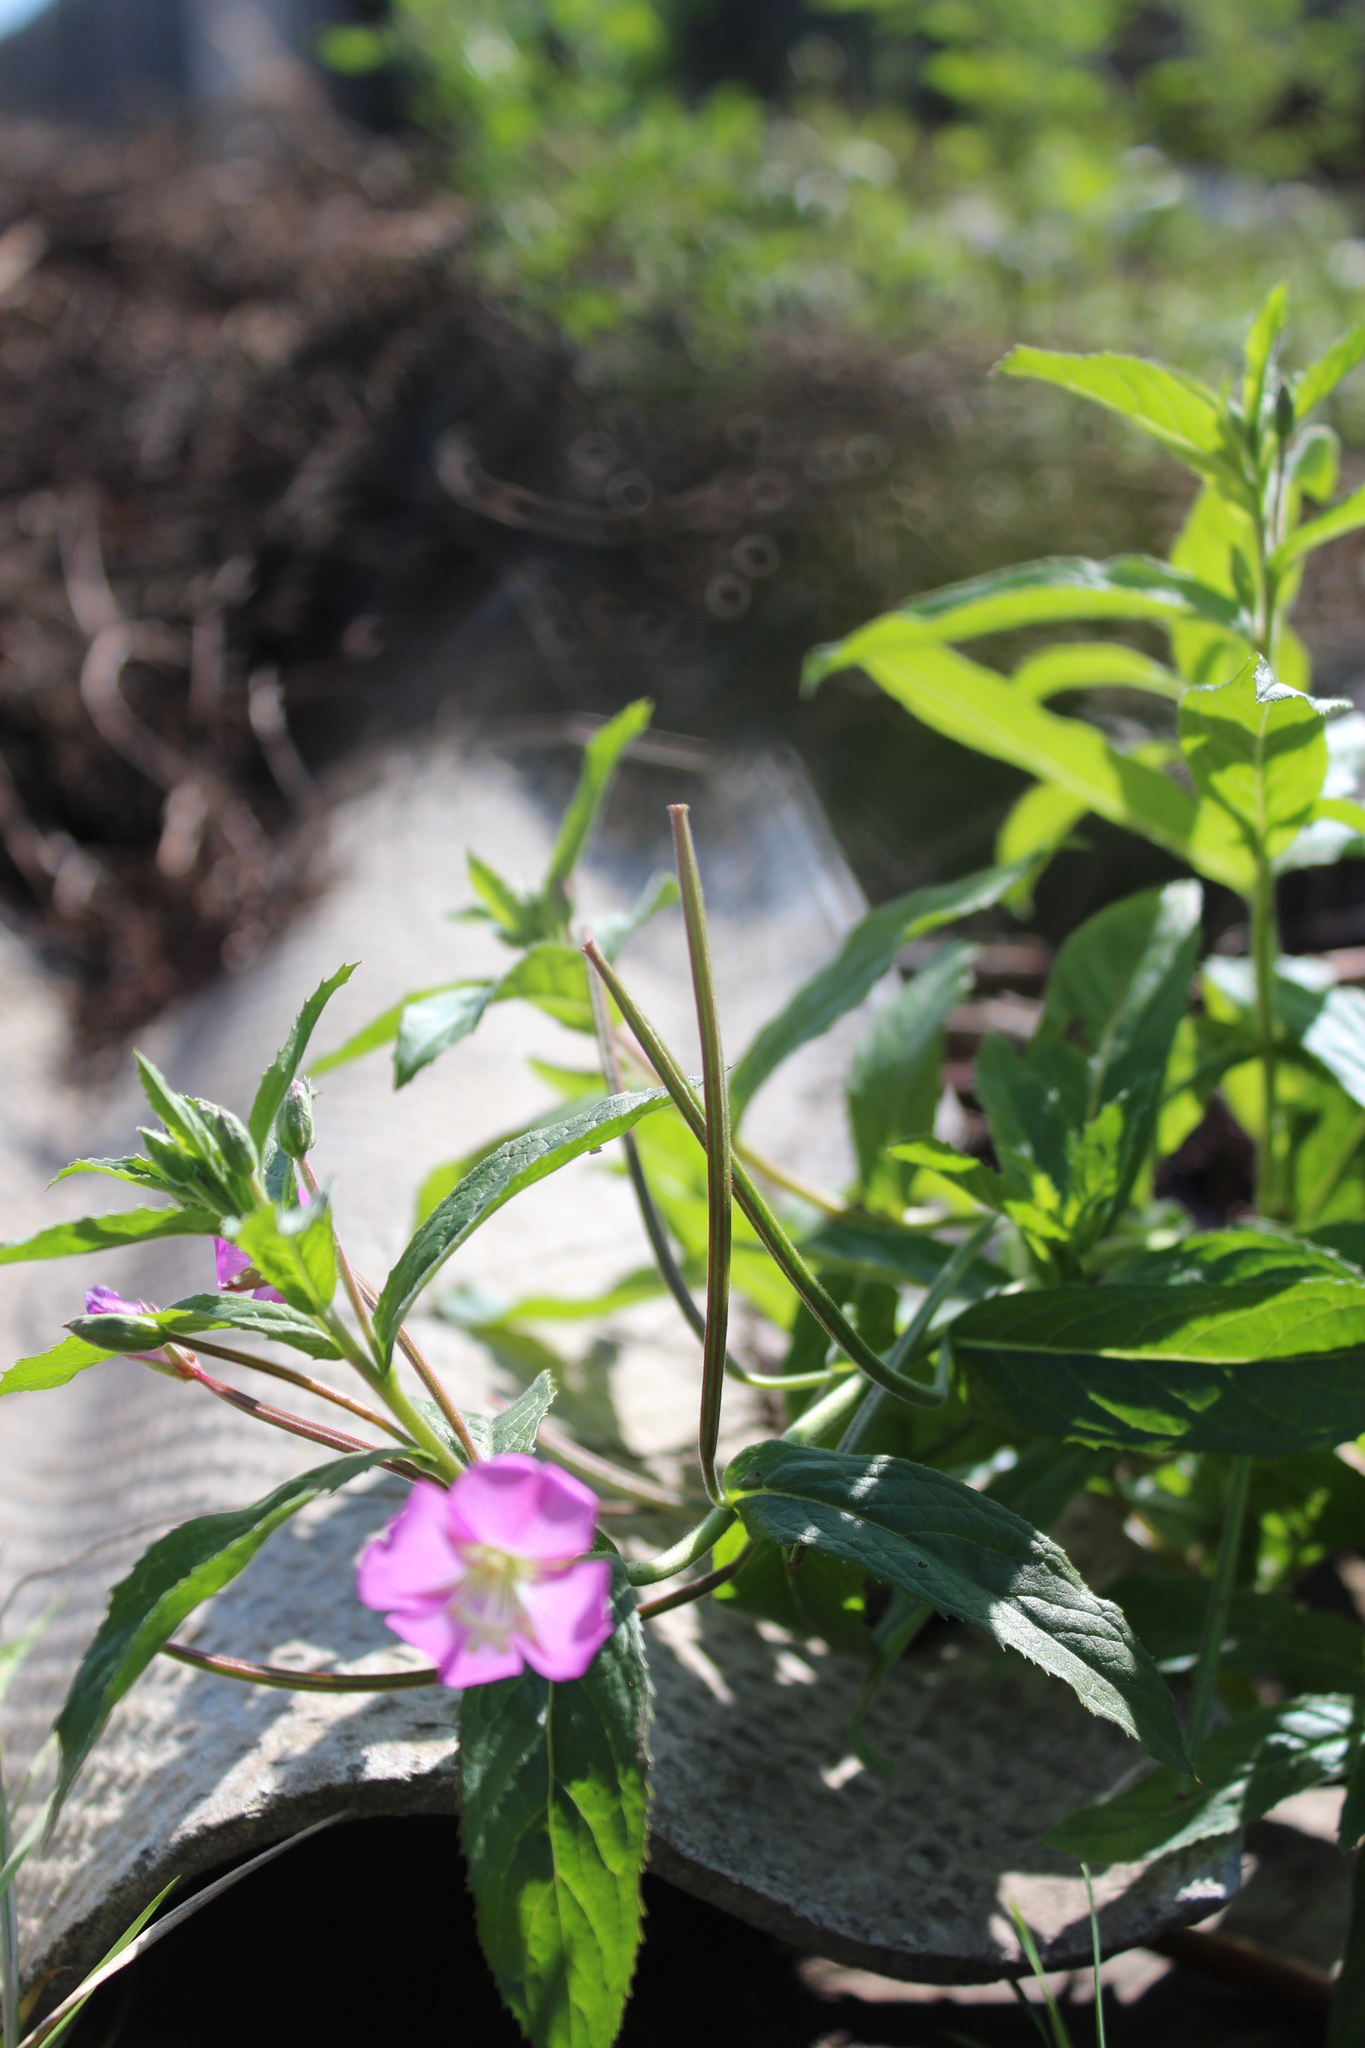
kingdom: Plantae
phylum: Tracheophyta
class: Magnoliopsida
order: Myrtales
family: Onagraceae
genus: Epilobium
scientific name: Epilobium hirsutum
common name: Great willowherb
